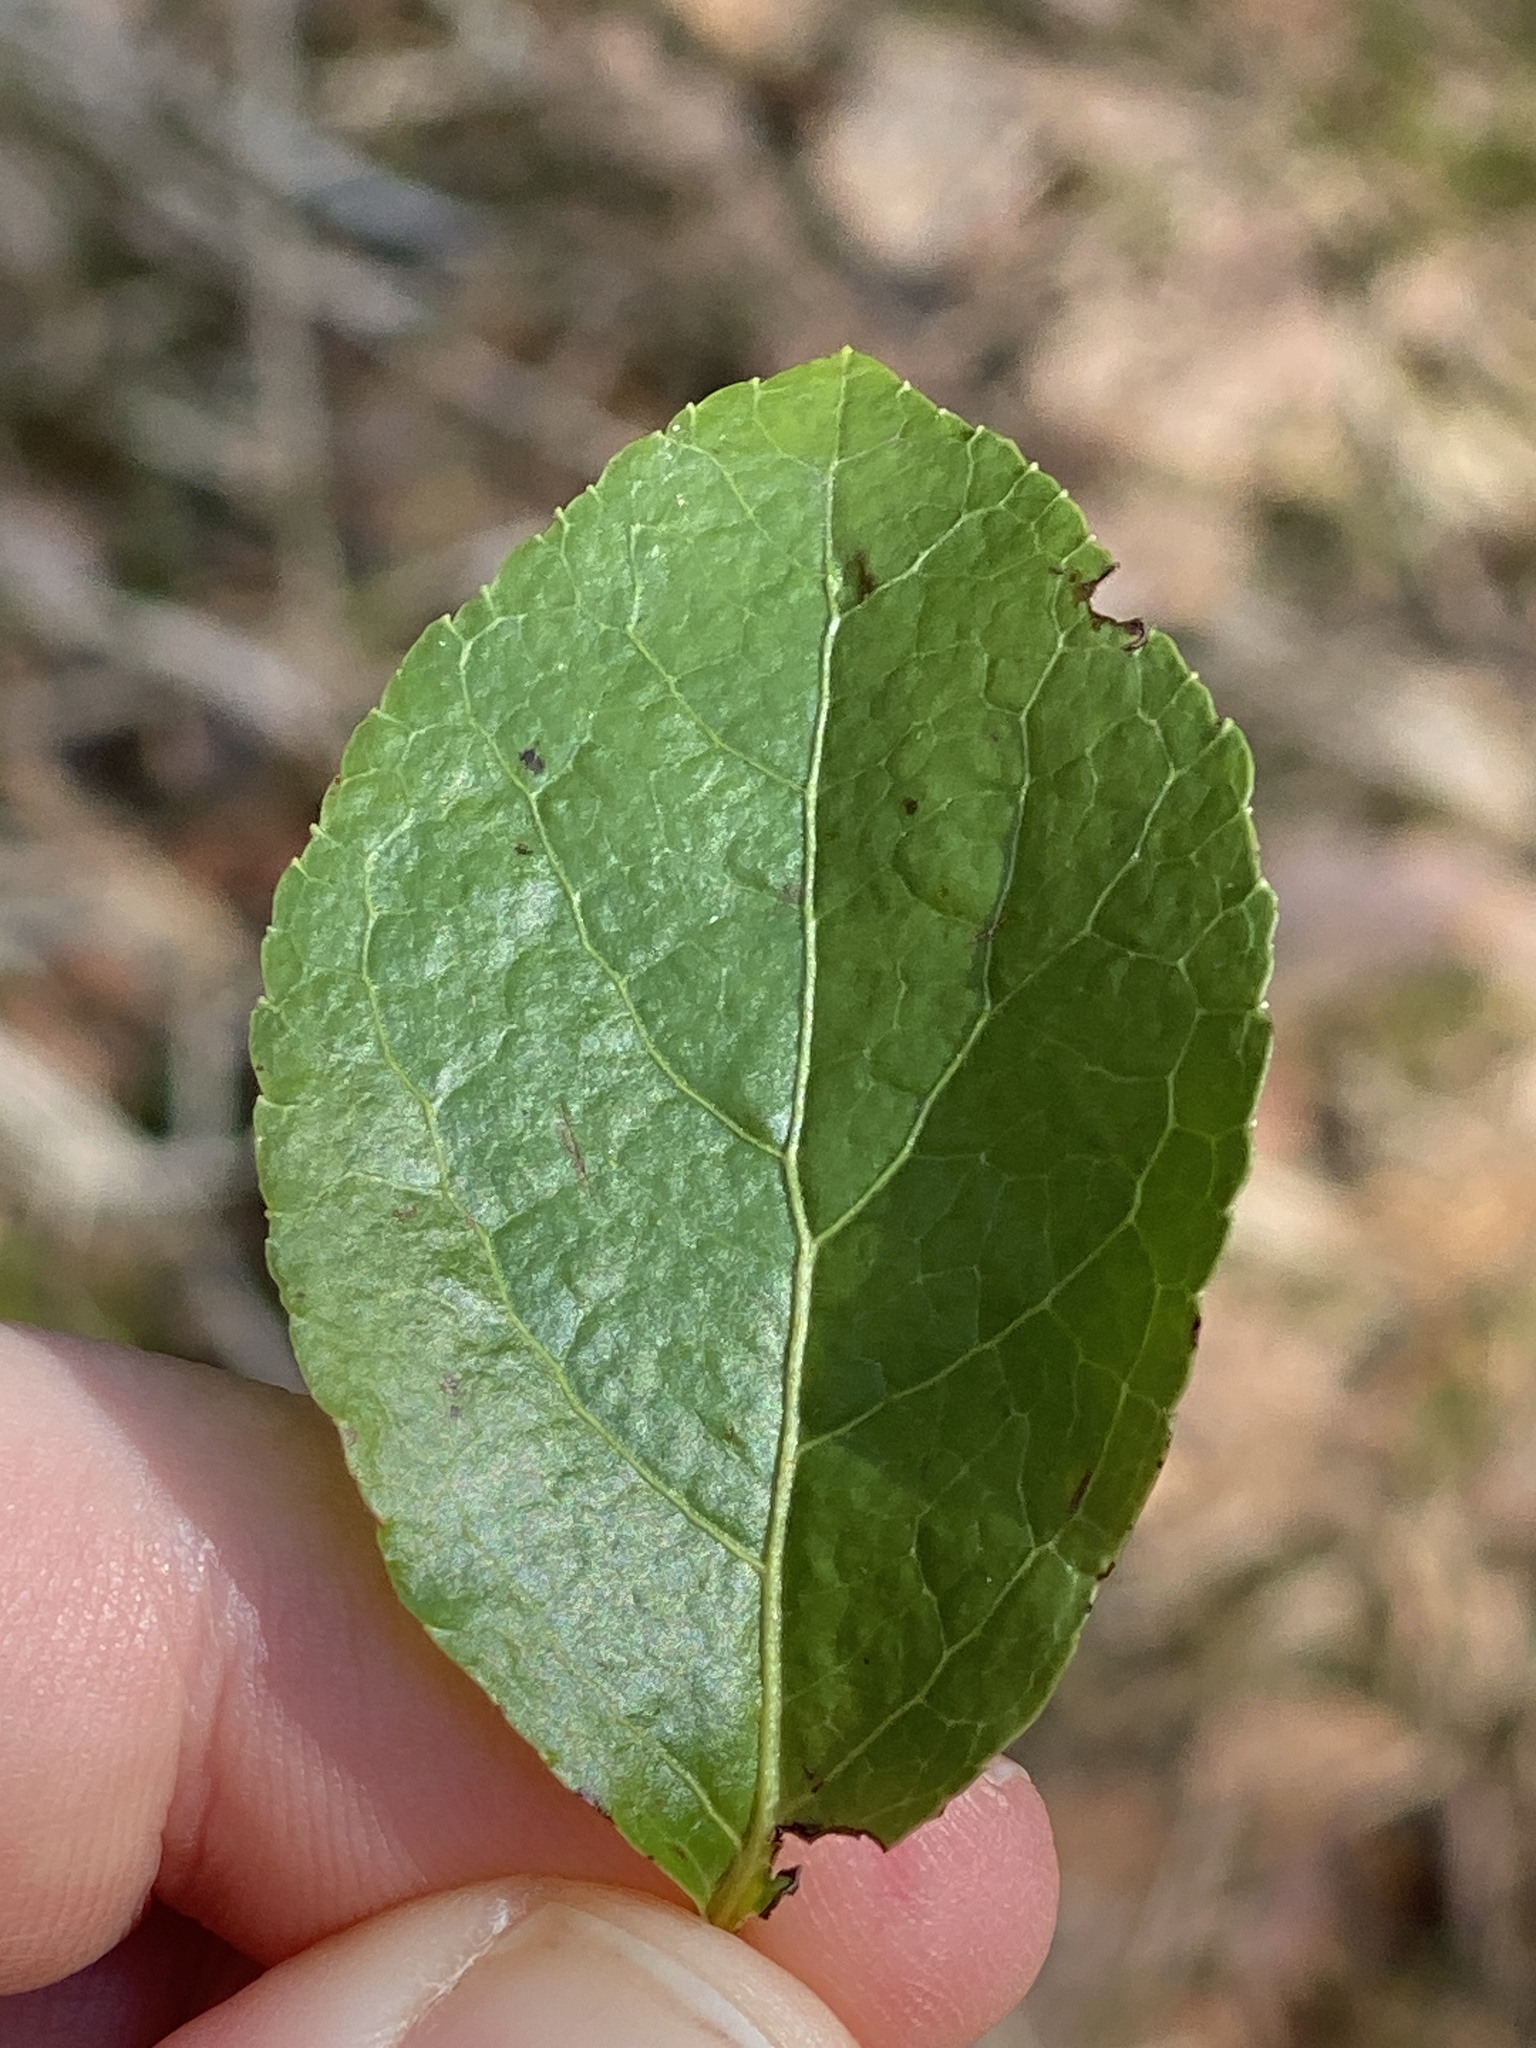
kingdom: Plantae
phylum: Tracheophyta
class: Magnoliopsida
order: Ericales
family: Ericaceae
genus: Orthilia
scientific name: Orthilia secunda
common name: One-sided orthilia
